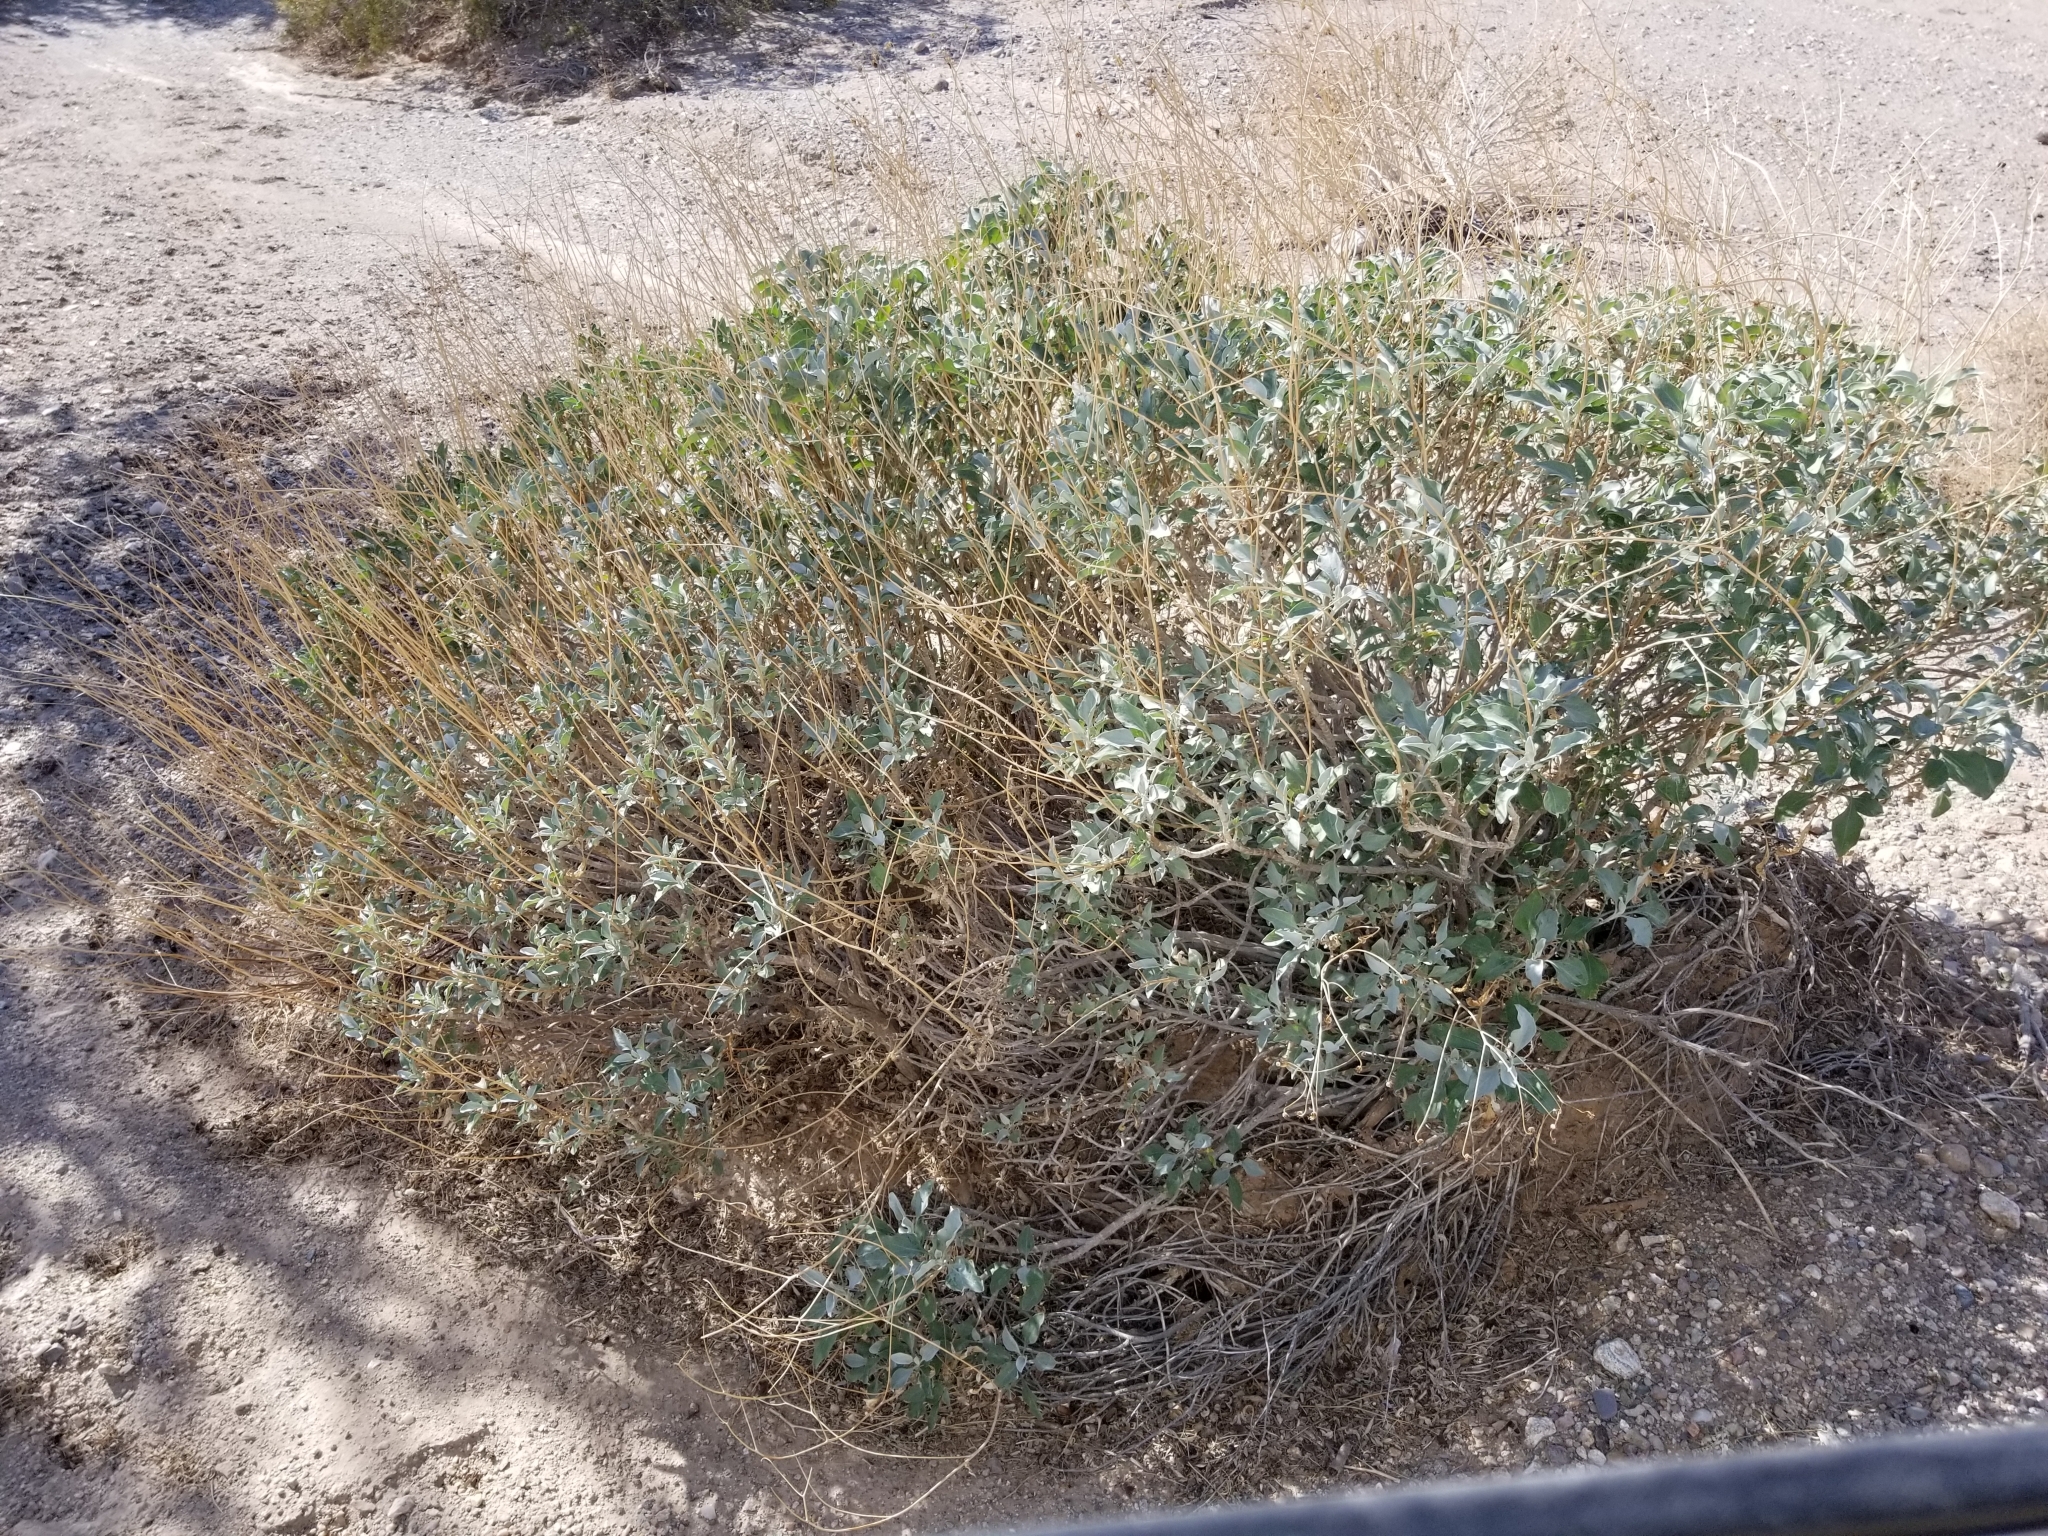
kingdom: Plantae
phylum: Tracheophyta
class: Magnoliopsida
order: Asterales
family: Asteraceae
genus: Encelia
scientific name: Encelia farinosa
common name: Brittlebush
